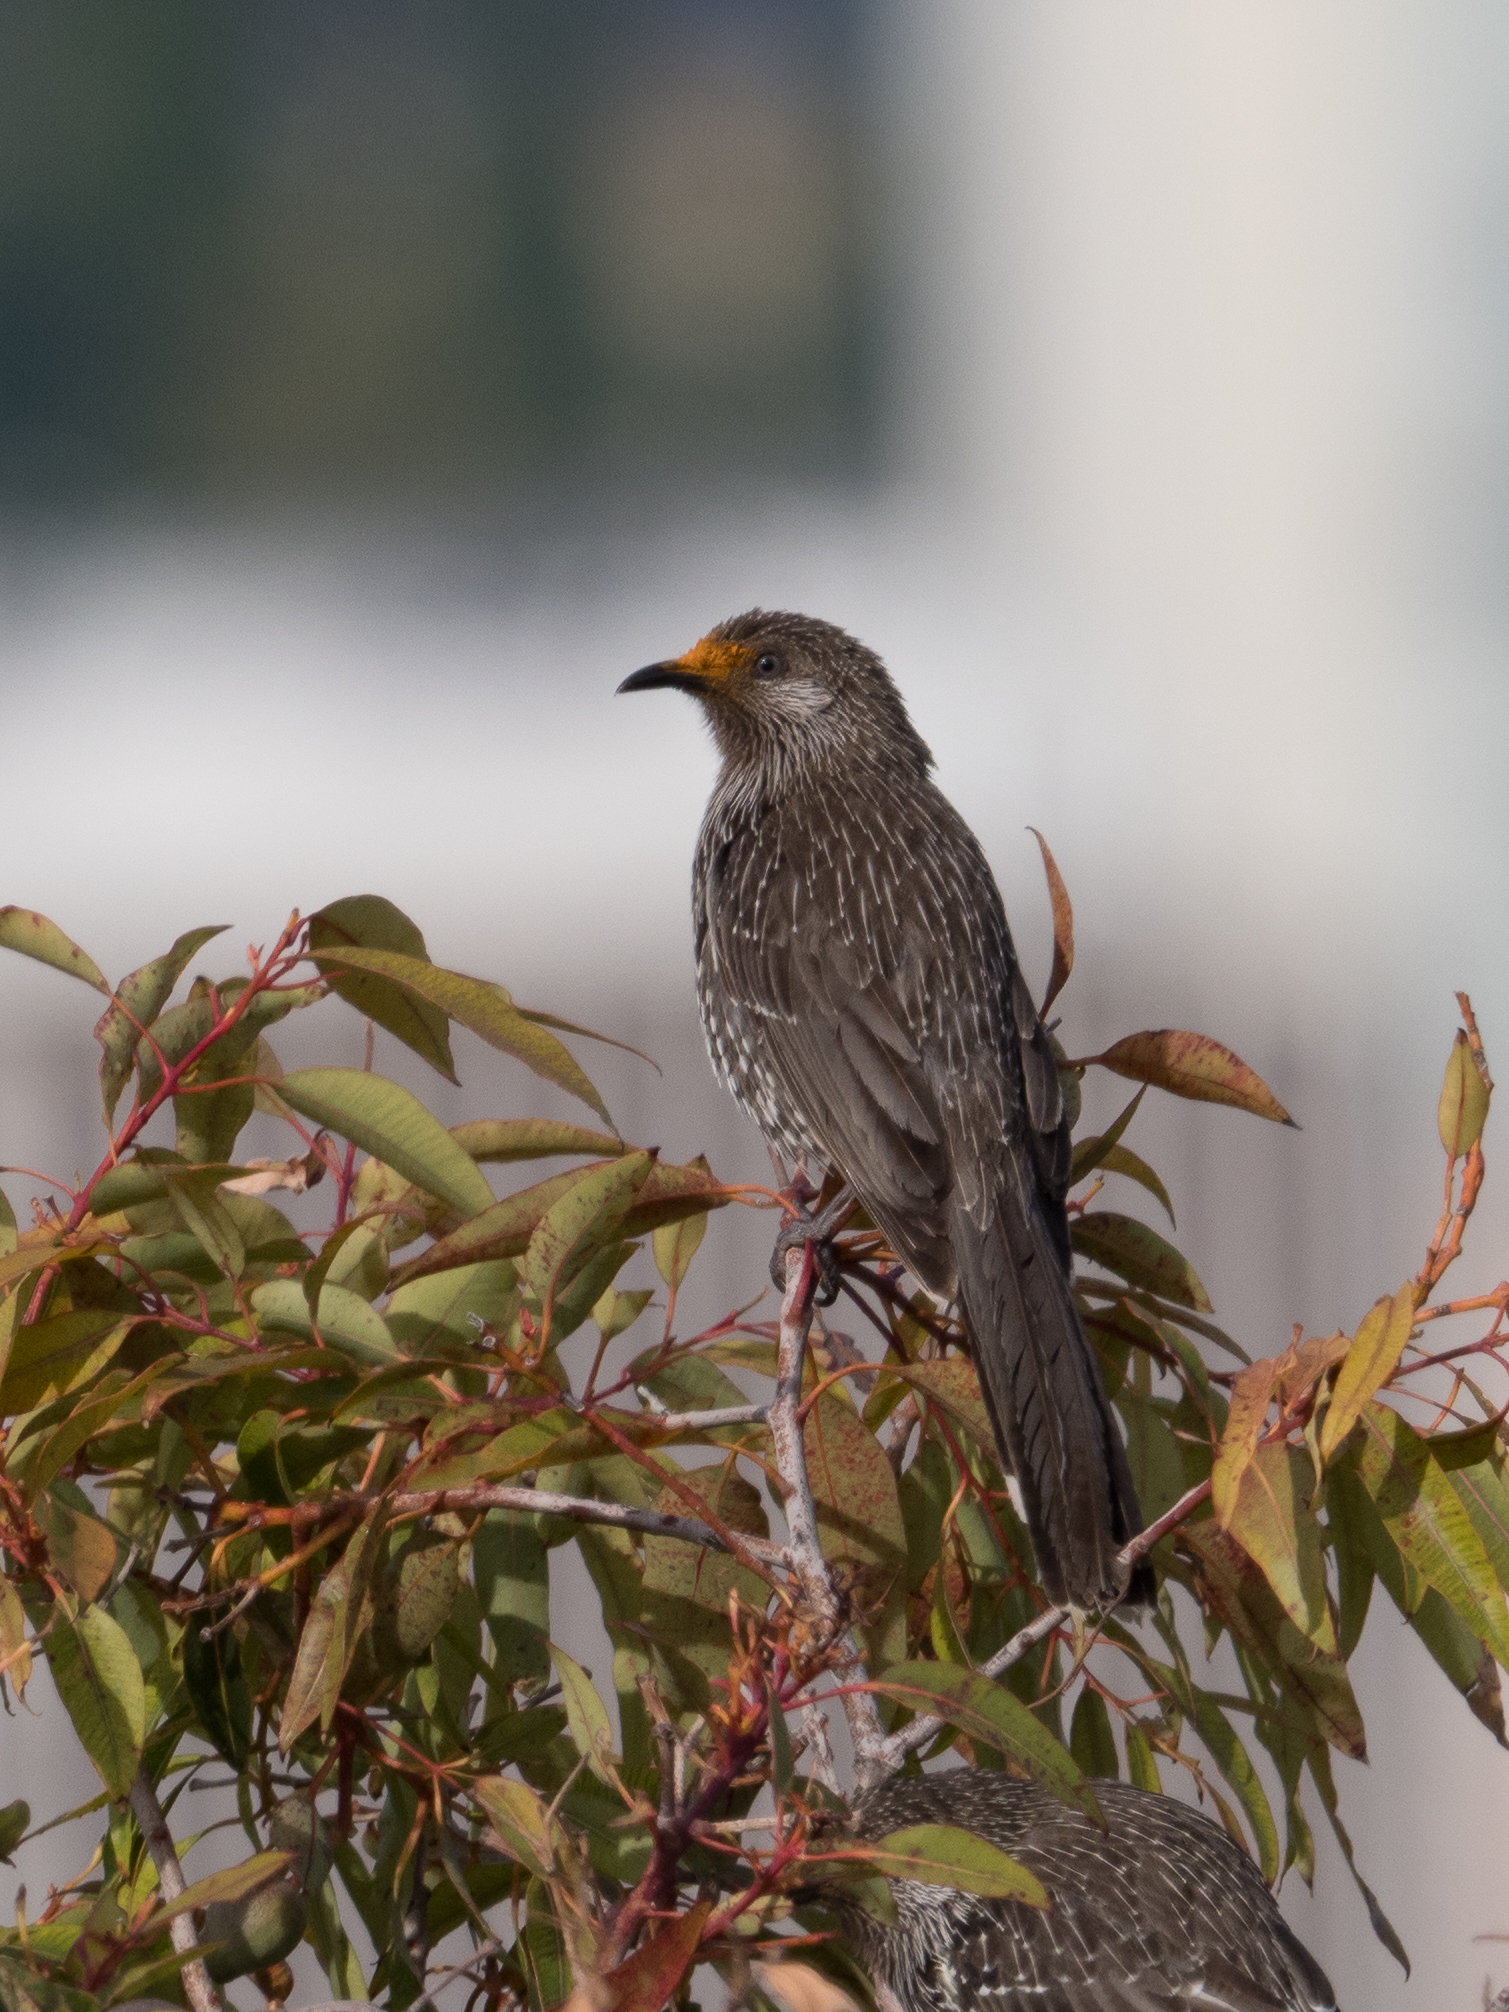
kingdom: Animalia
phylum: Chordata
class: Aves
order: Passeriformes
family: Meliphagidae
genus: Anthochaera
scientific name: Anthochaera chrysoptera
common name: Little wattlebird
